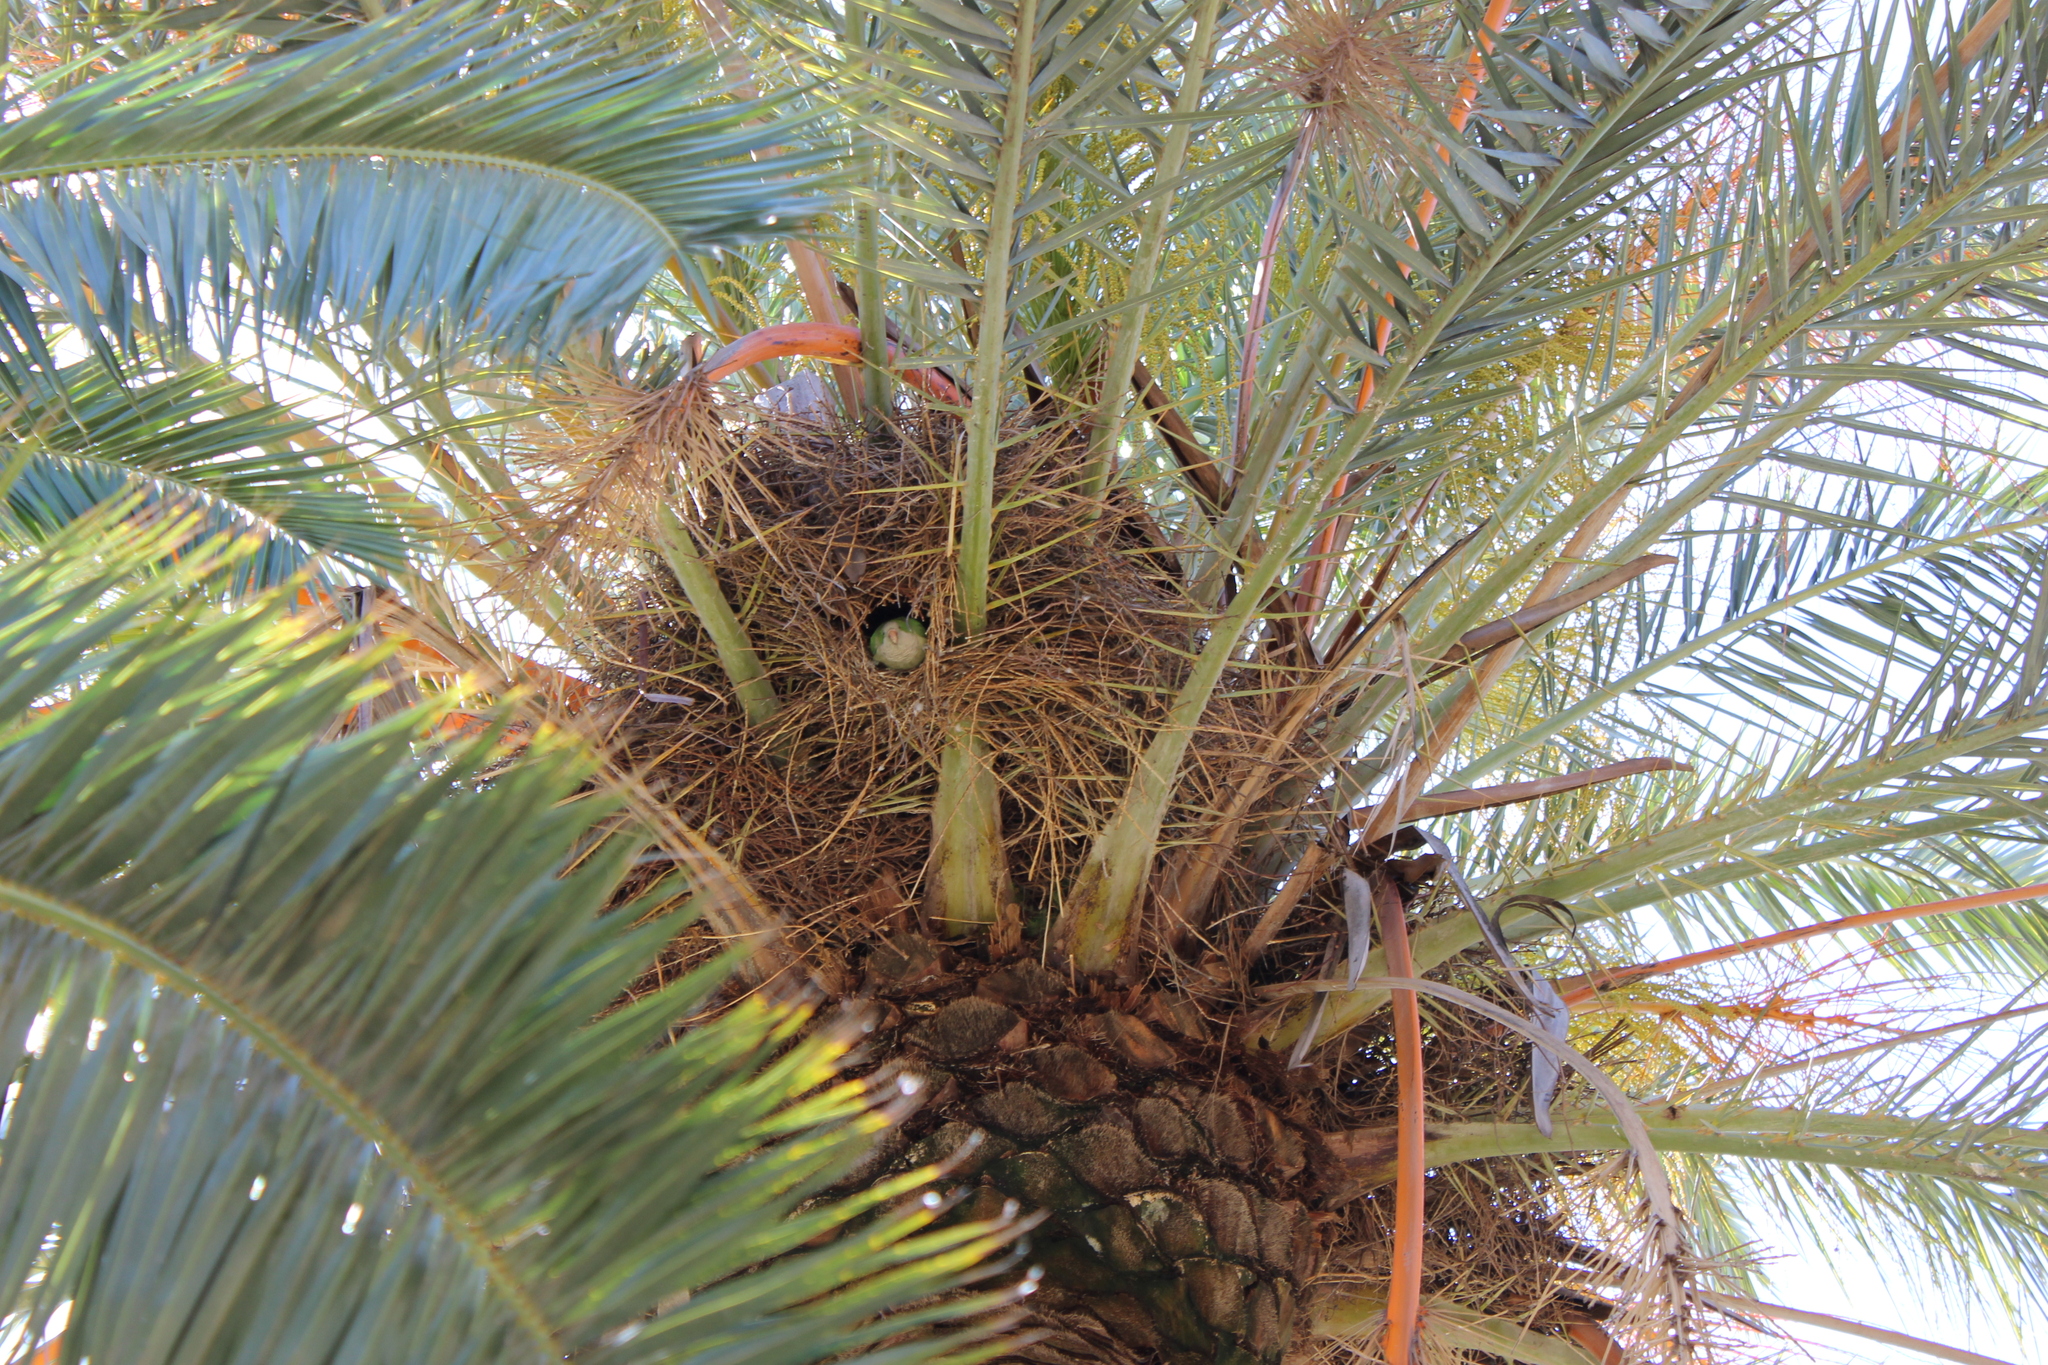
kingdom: Animalia
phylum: Chordata
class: Aves
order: Psittaciformes
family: Psittacidae
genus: Myiopsitta
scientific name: Myiopsitta monachus
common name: Monk parakeet
